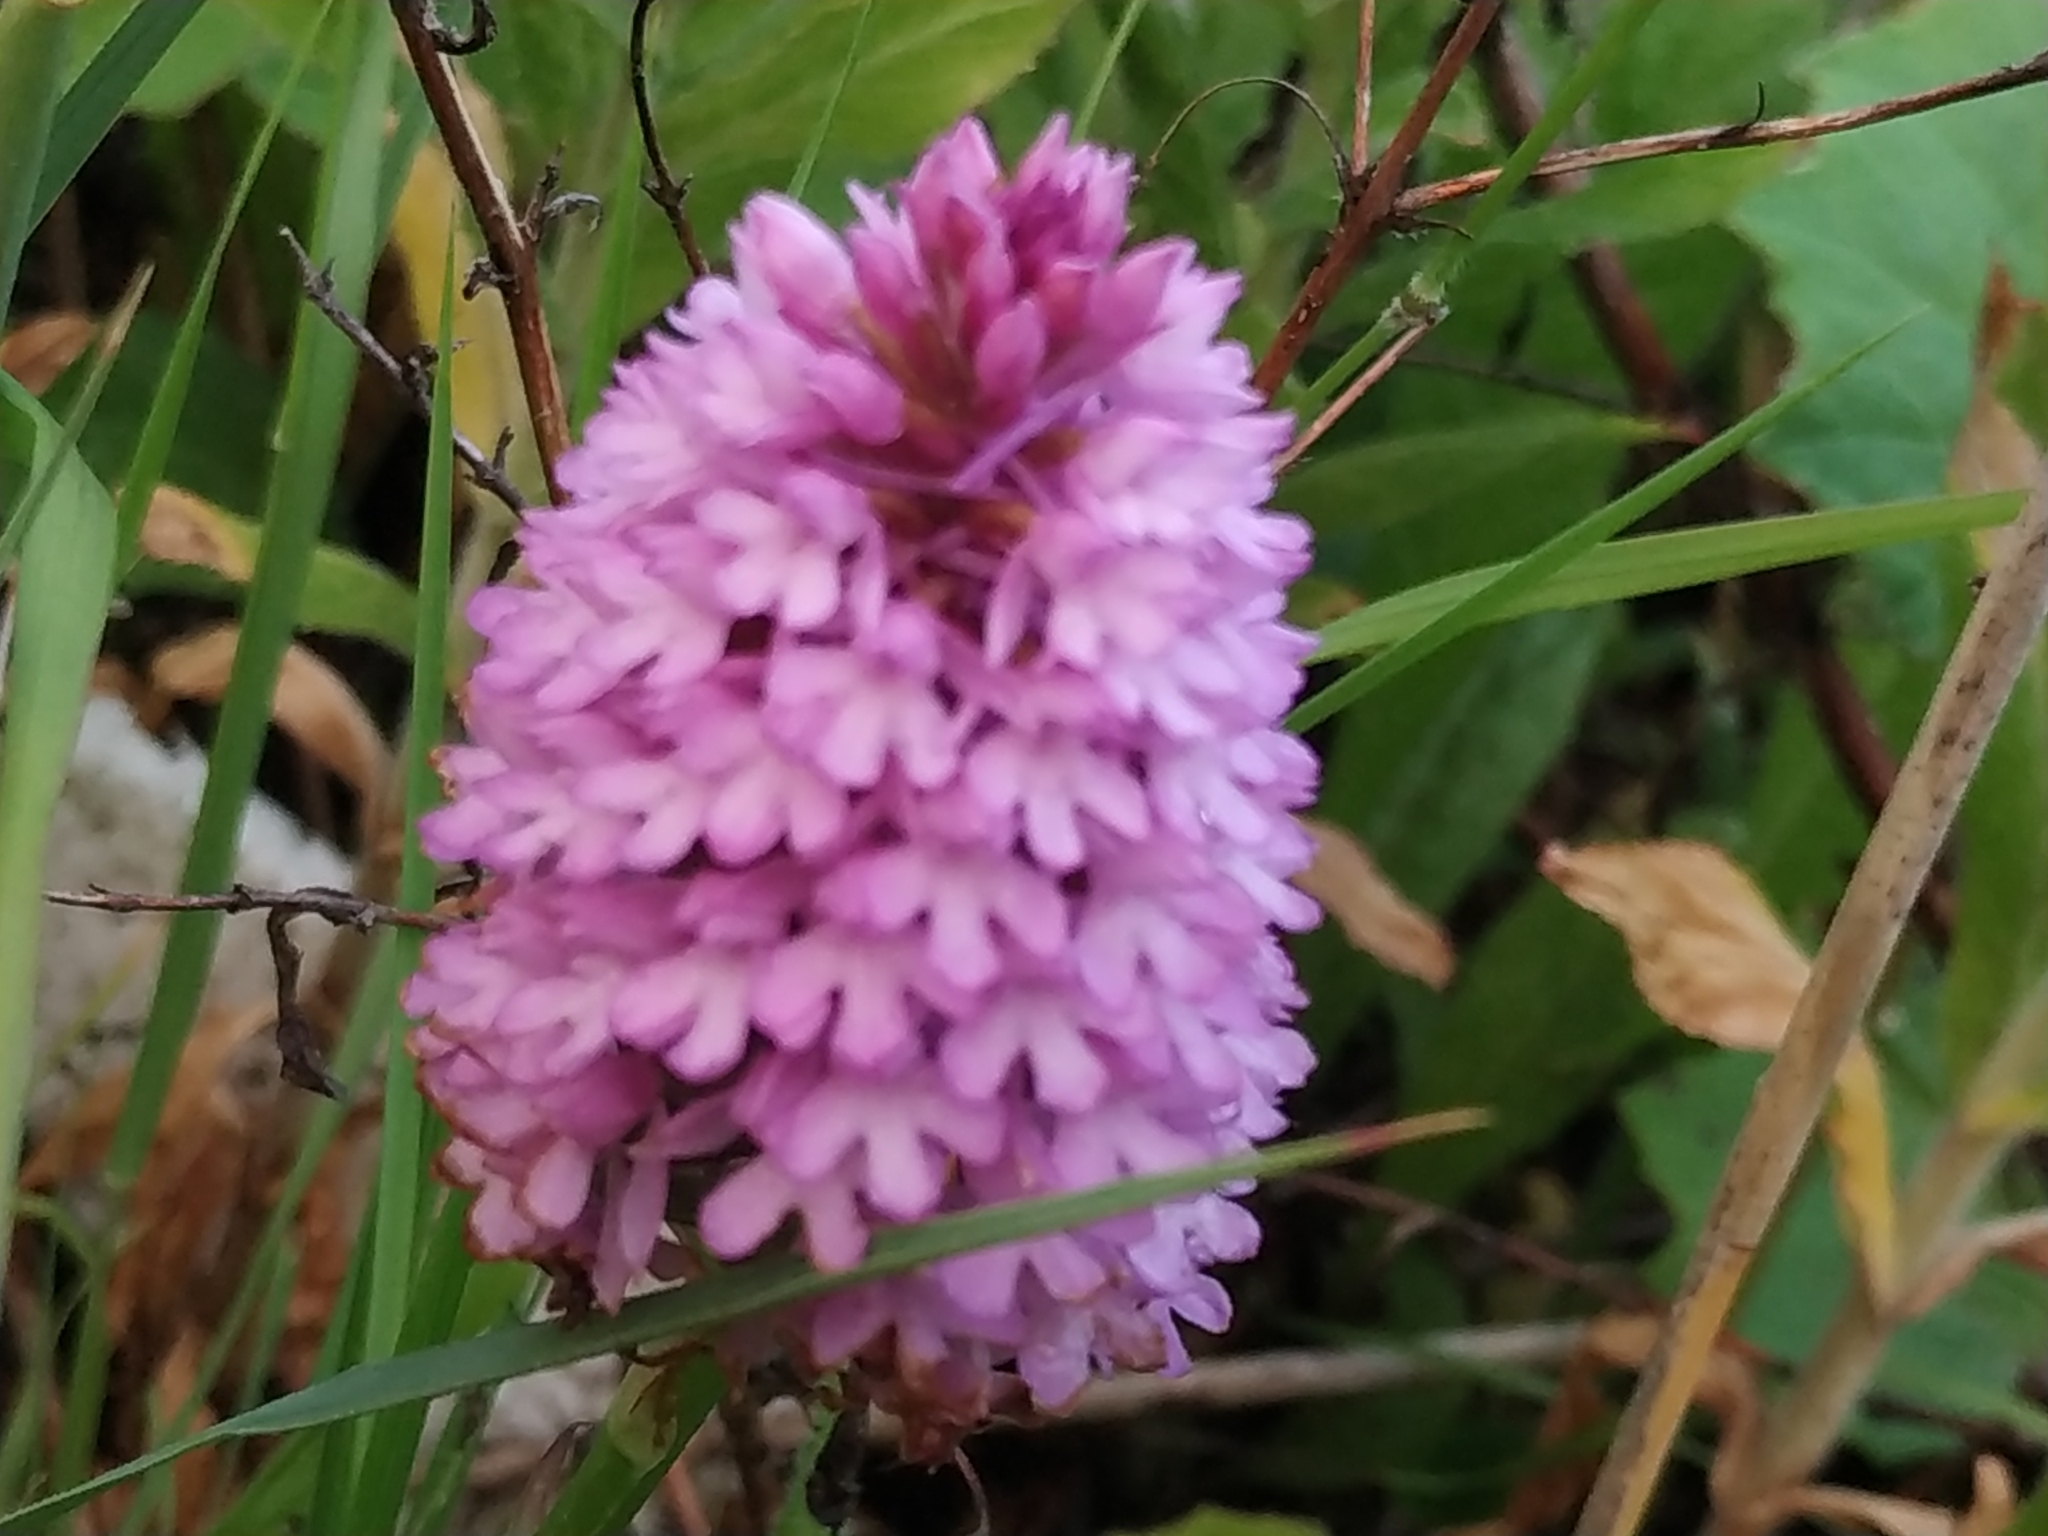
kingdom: Plantae
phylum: Tracheophyta
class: Liliopsida
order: Asparagales
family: Orchidaceae
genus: Anacamptis
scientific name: Anacamptis pyramidalis
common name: Pyramidal orchid
